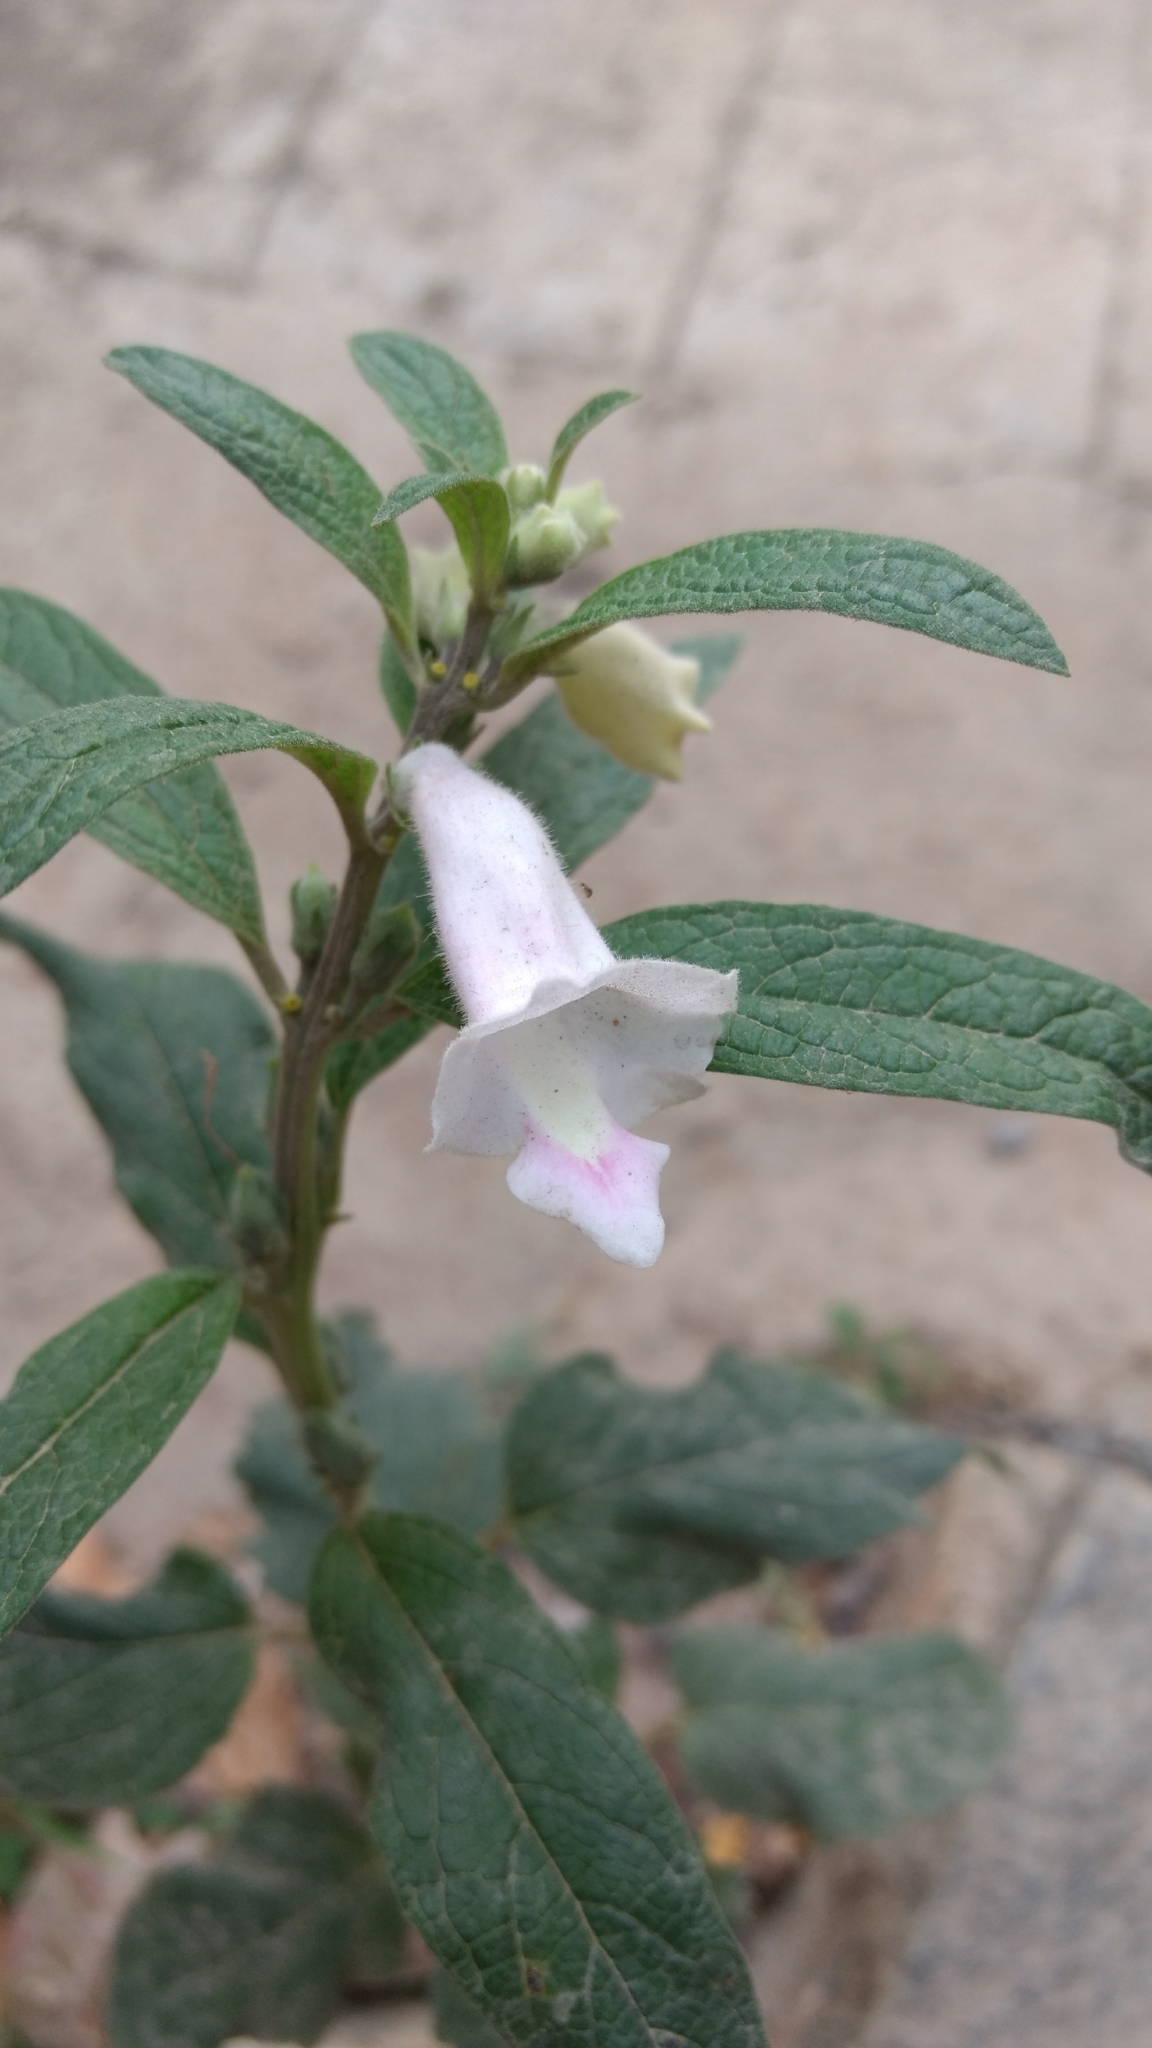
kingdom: Plantae
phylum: Tracheophyta
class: Magnoliopsida
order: Lamiales
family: Pedaliaceae
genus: Sesamum
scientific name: Sesamum indicum
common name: Sesame
